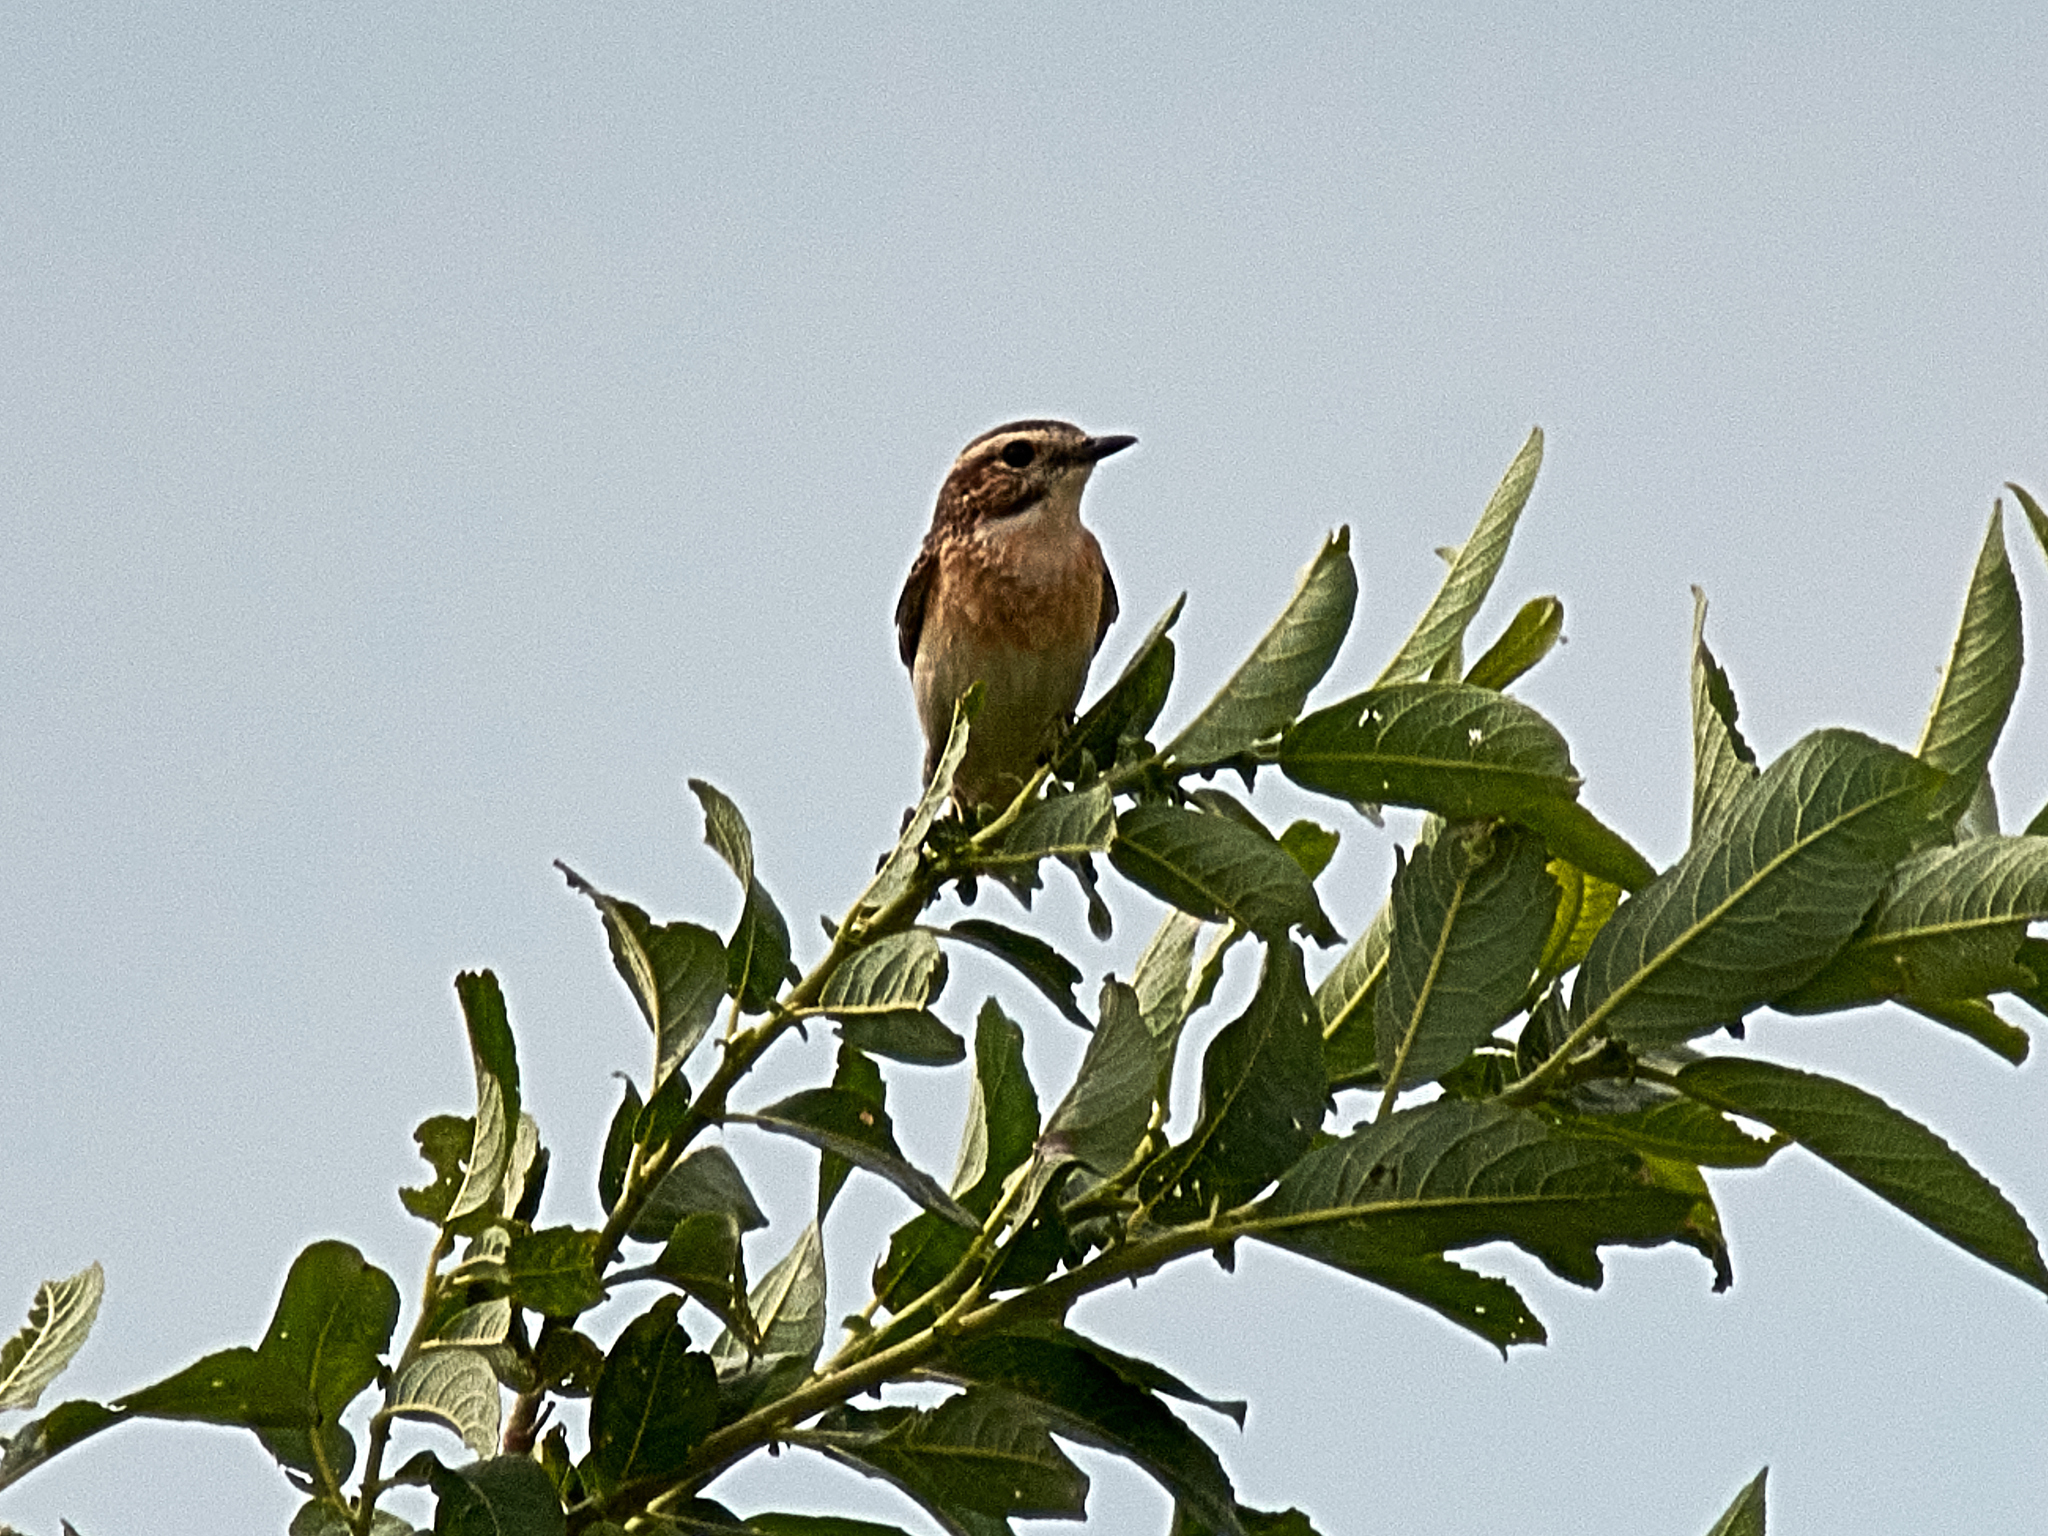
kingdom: Animalia
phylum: Chordata
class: Aves
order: Passeriformes
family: Muscicapidae
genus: Saxicola
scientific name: Saxicola rubetra
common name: Whinchat
